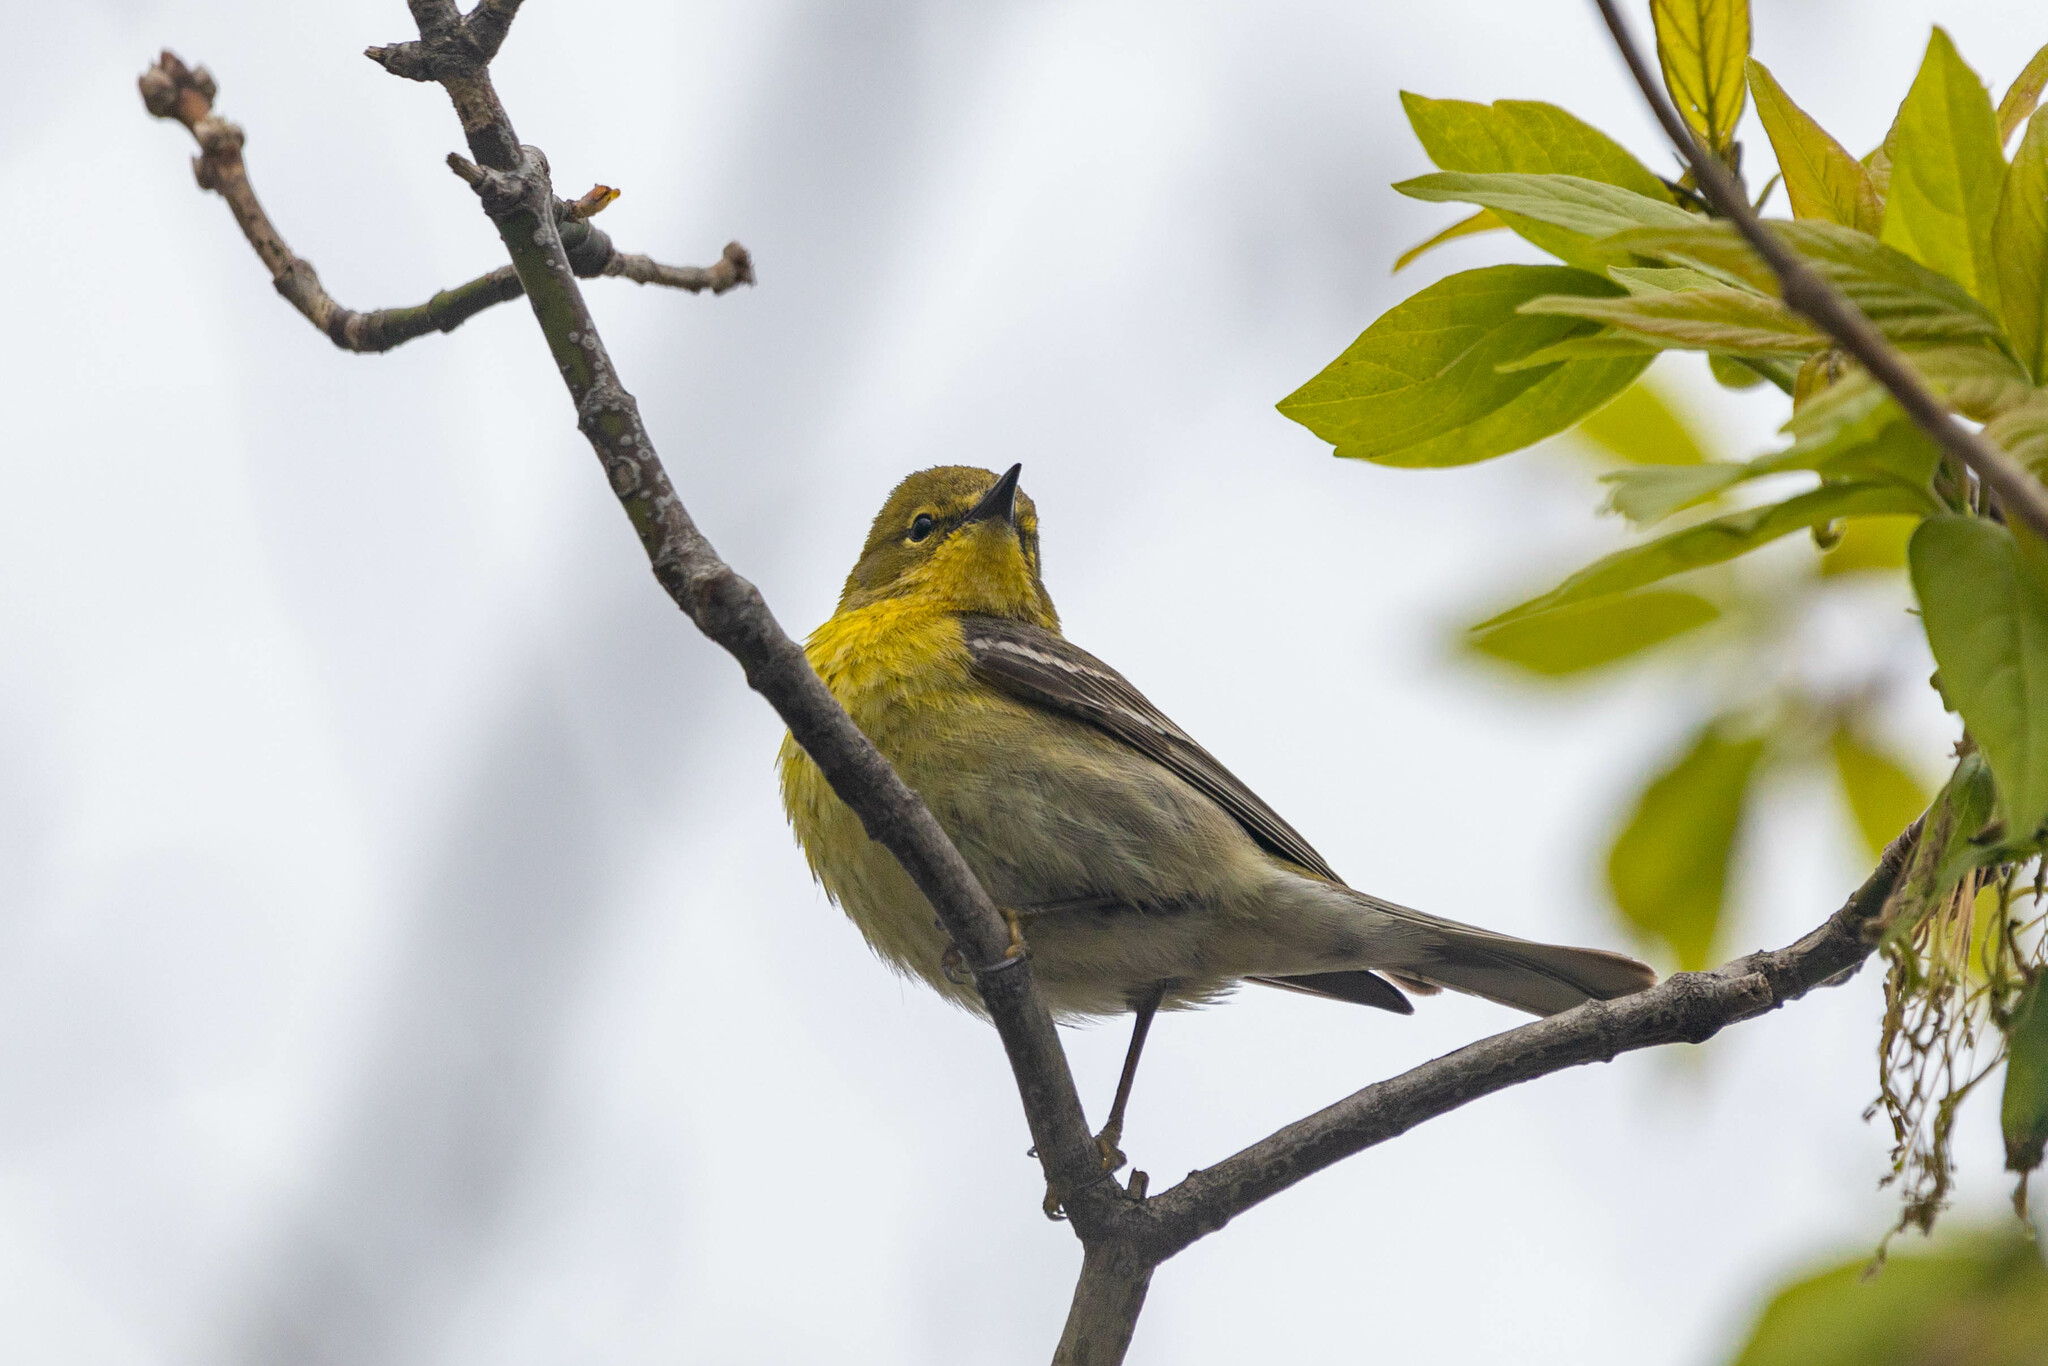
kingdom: Animalia
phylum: Chordata
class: Aves
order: Passeriformes
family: Parulidae
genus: Setophaga
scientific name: Setophaga pinus
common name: Pine warbler
